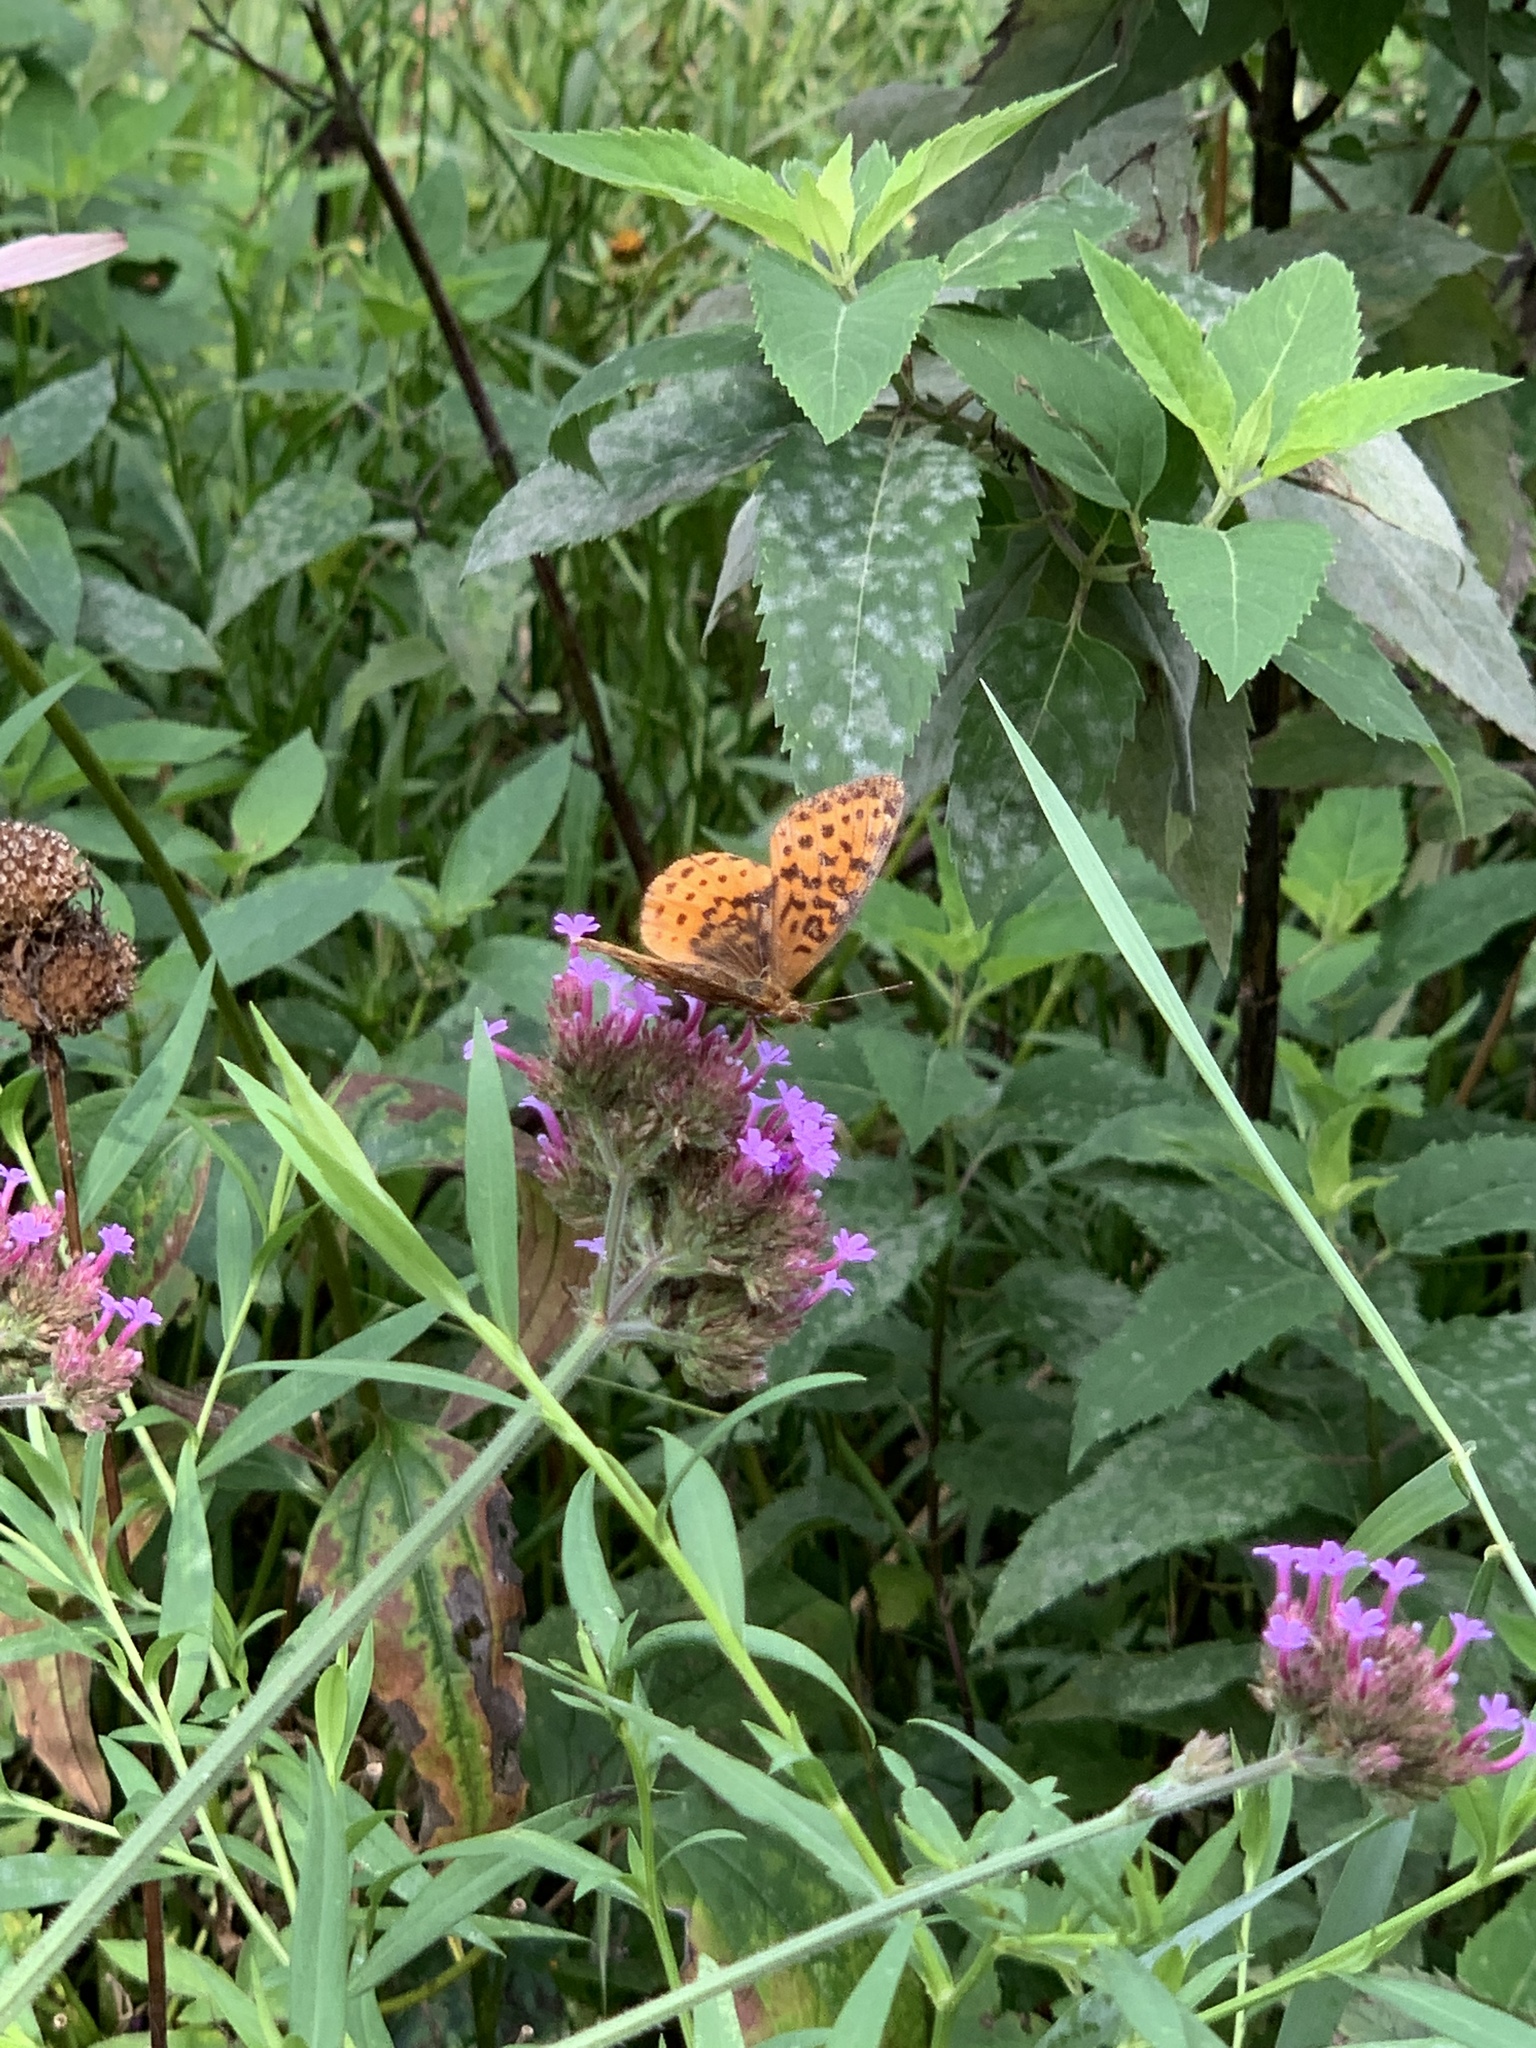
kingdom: Animalia
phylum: Arthropoda
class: Insecta
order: Lepidoptera
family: Nymphalidae
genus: Clossiana
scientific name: Clossiana toddi
